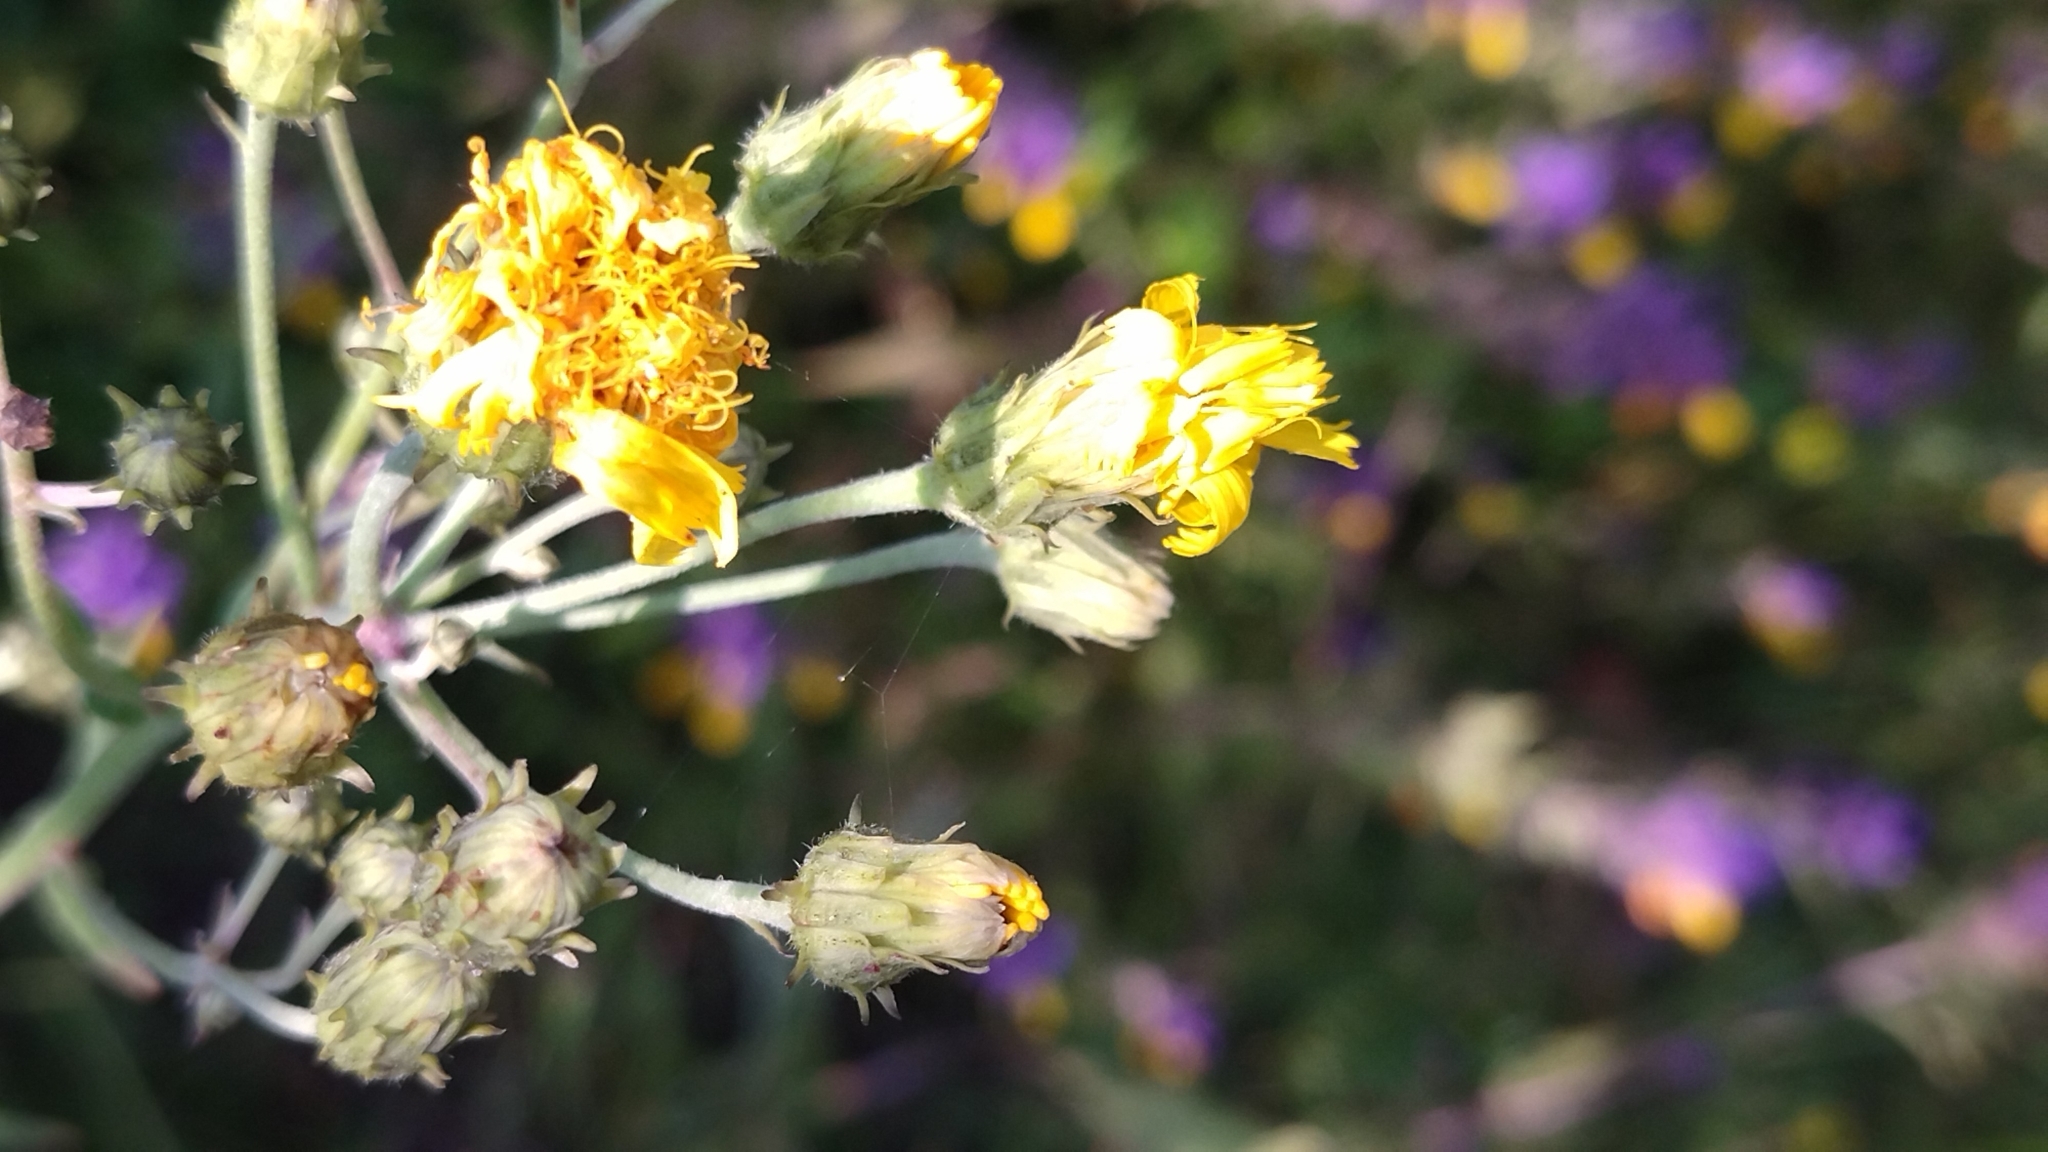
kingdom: Plantae
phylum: Tracheophyta
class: Magnoliopsida
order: Asterales
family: Asteraceae
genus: Hieracium
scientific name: Hieracium umbellatum
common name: Northern hawkweed
